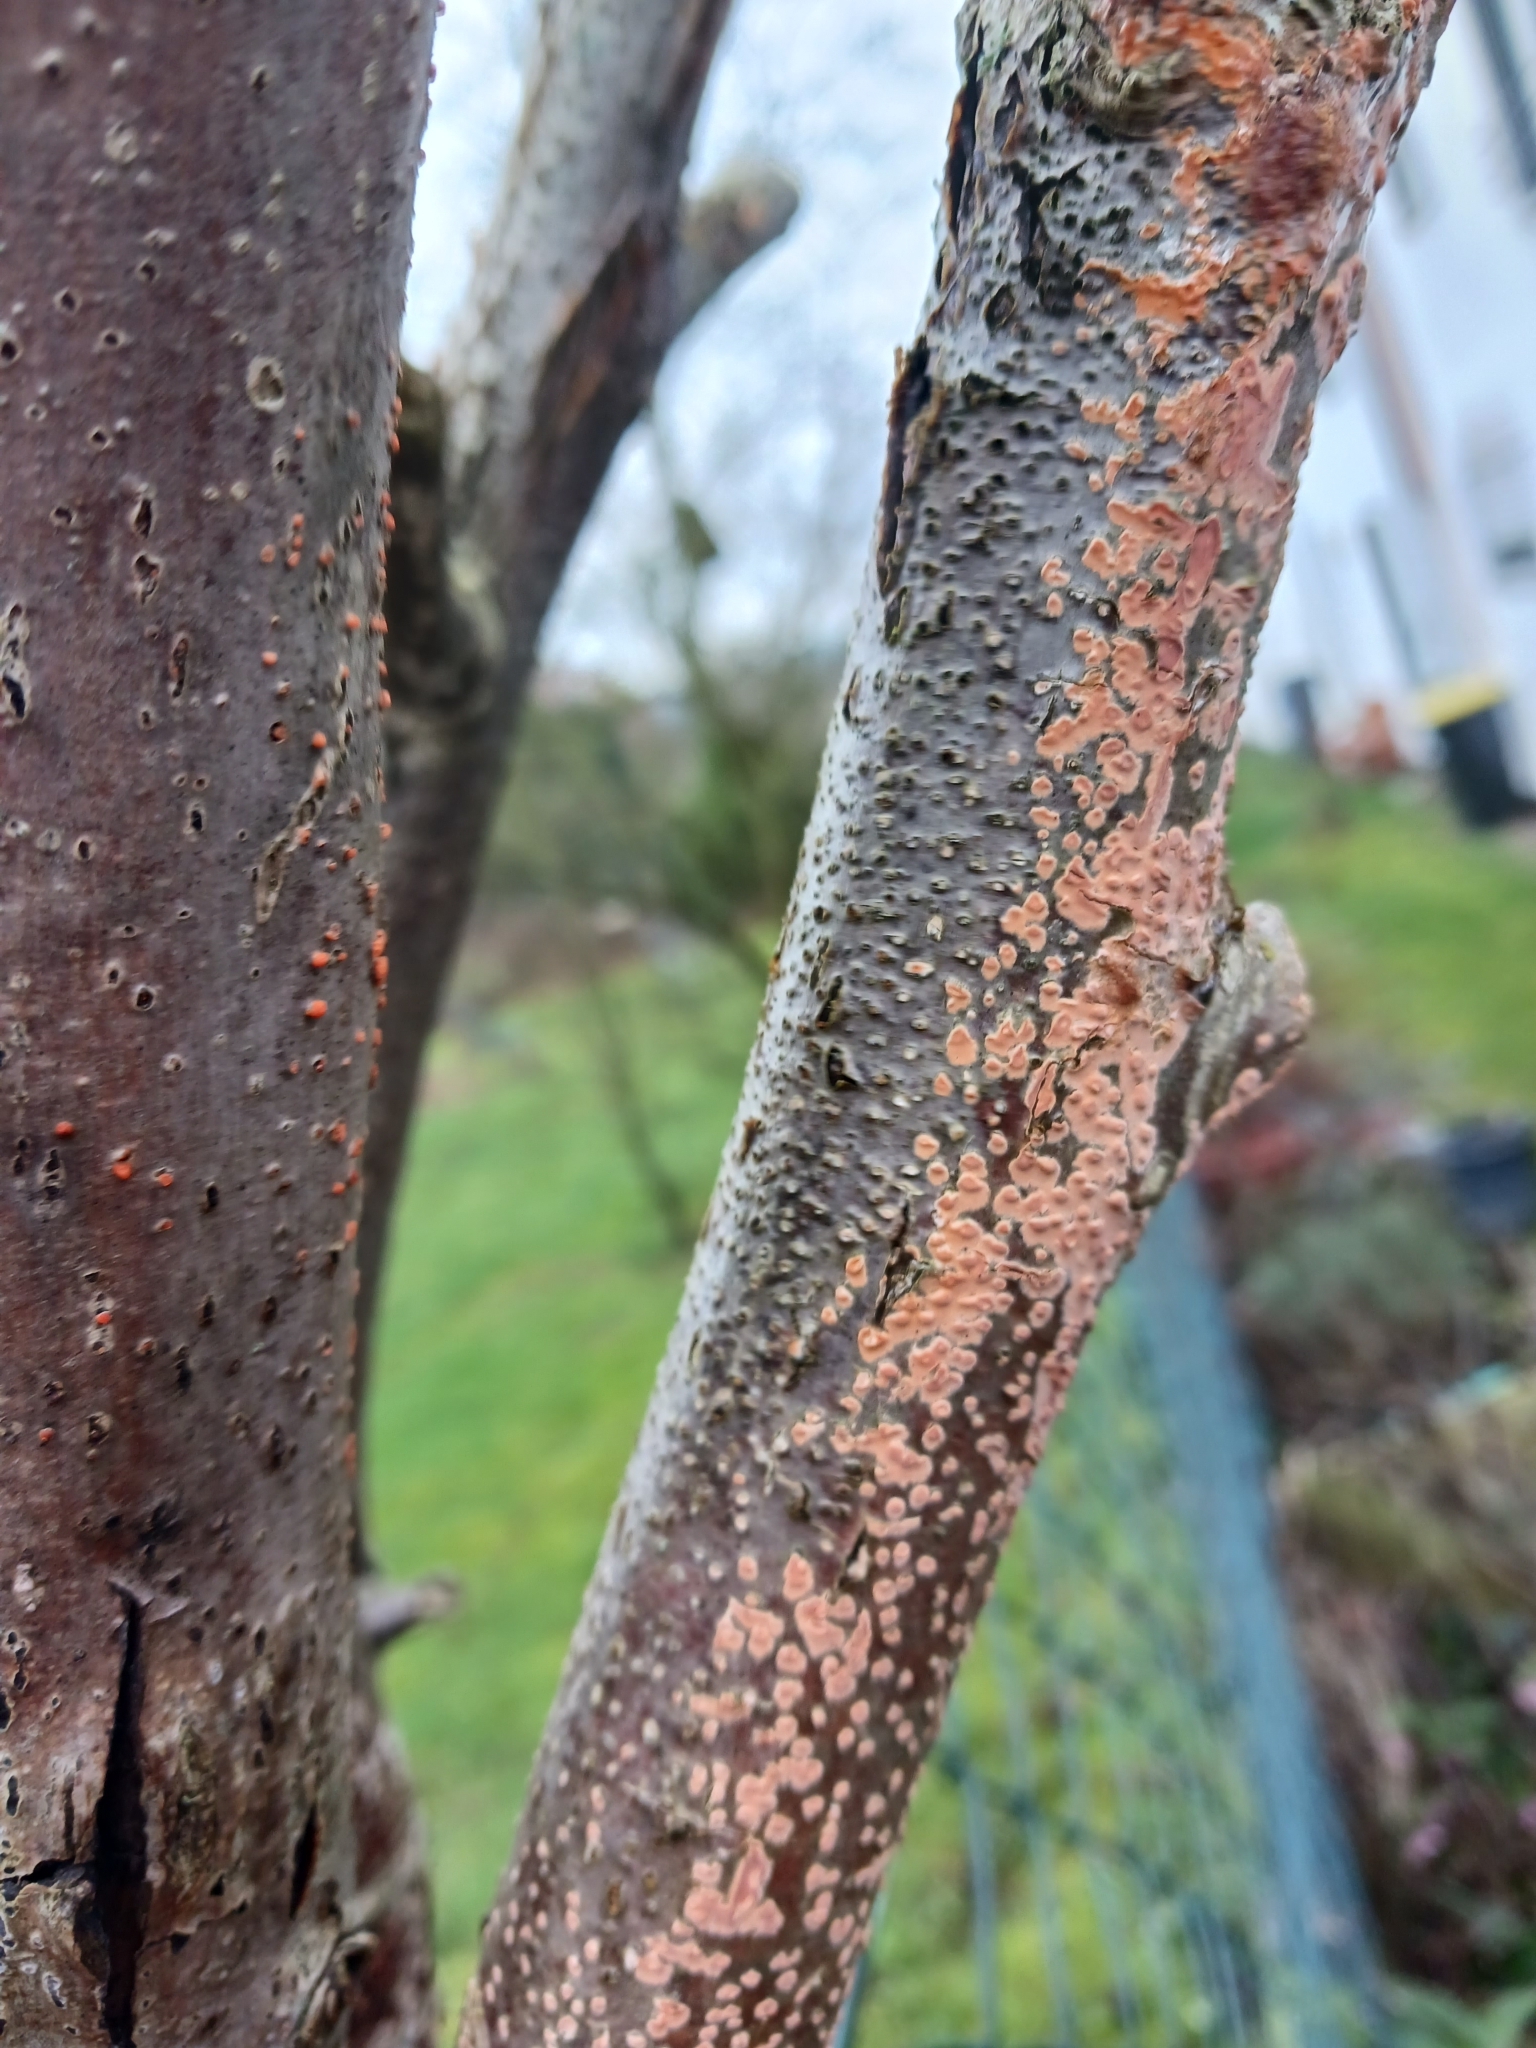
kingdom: Fungi
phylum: Basidiomycota
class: Agaricomycetes
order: Russulales
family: Peniophoraceae
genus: Peniophora
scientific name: Peniophora incarnata
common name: Rosy crust
